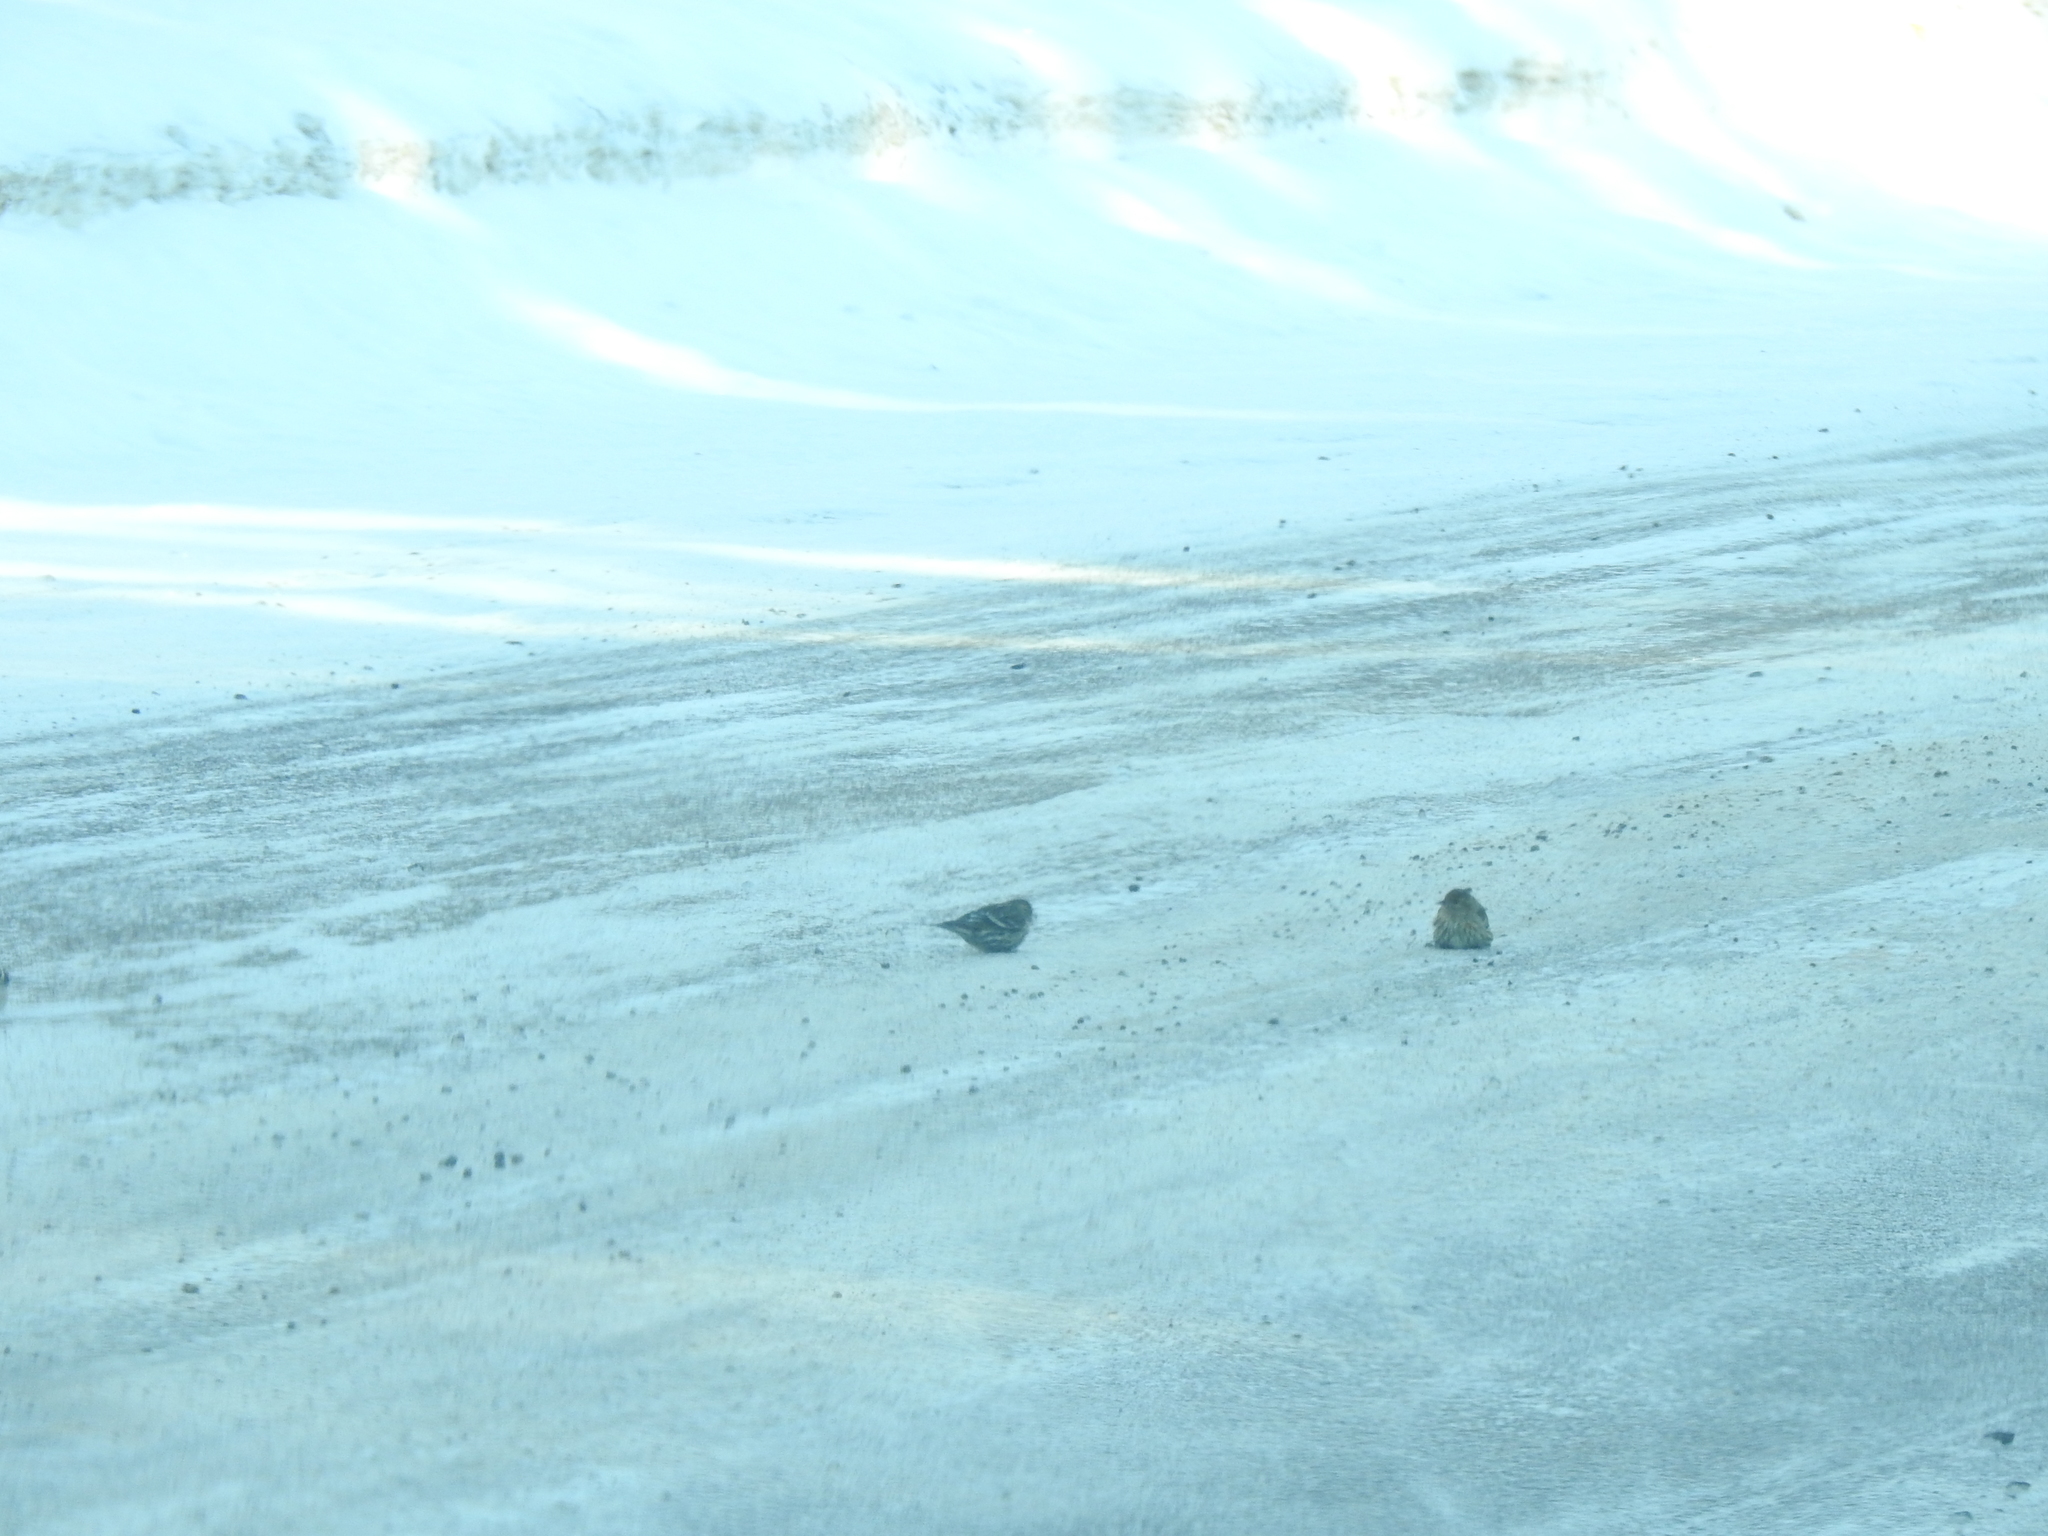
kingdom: Animalia
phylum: Chordata
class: Aves
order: Passeriformes
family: Fringillidae
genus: Spinus
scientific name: Spinus pinus
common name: Pine siskin
